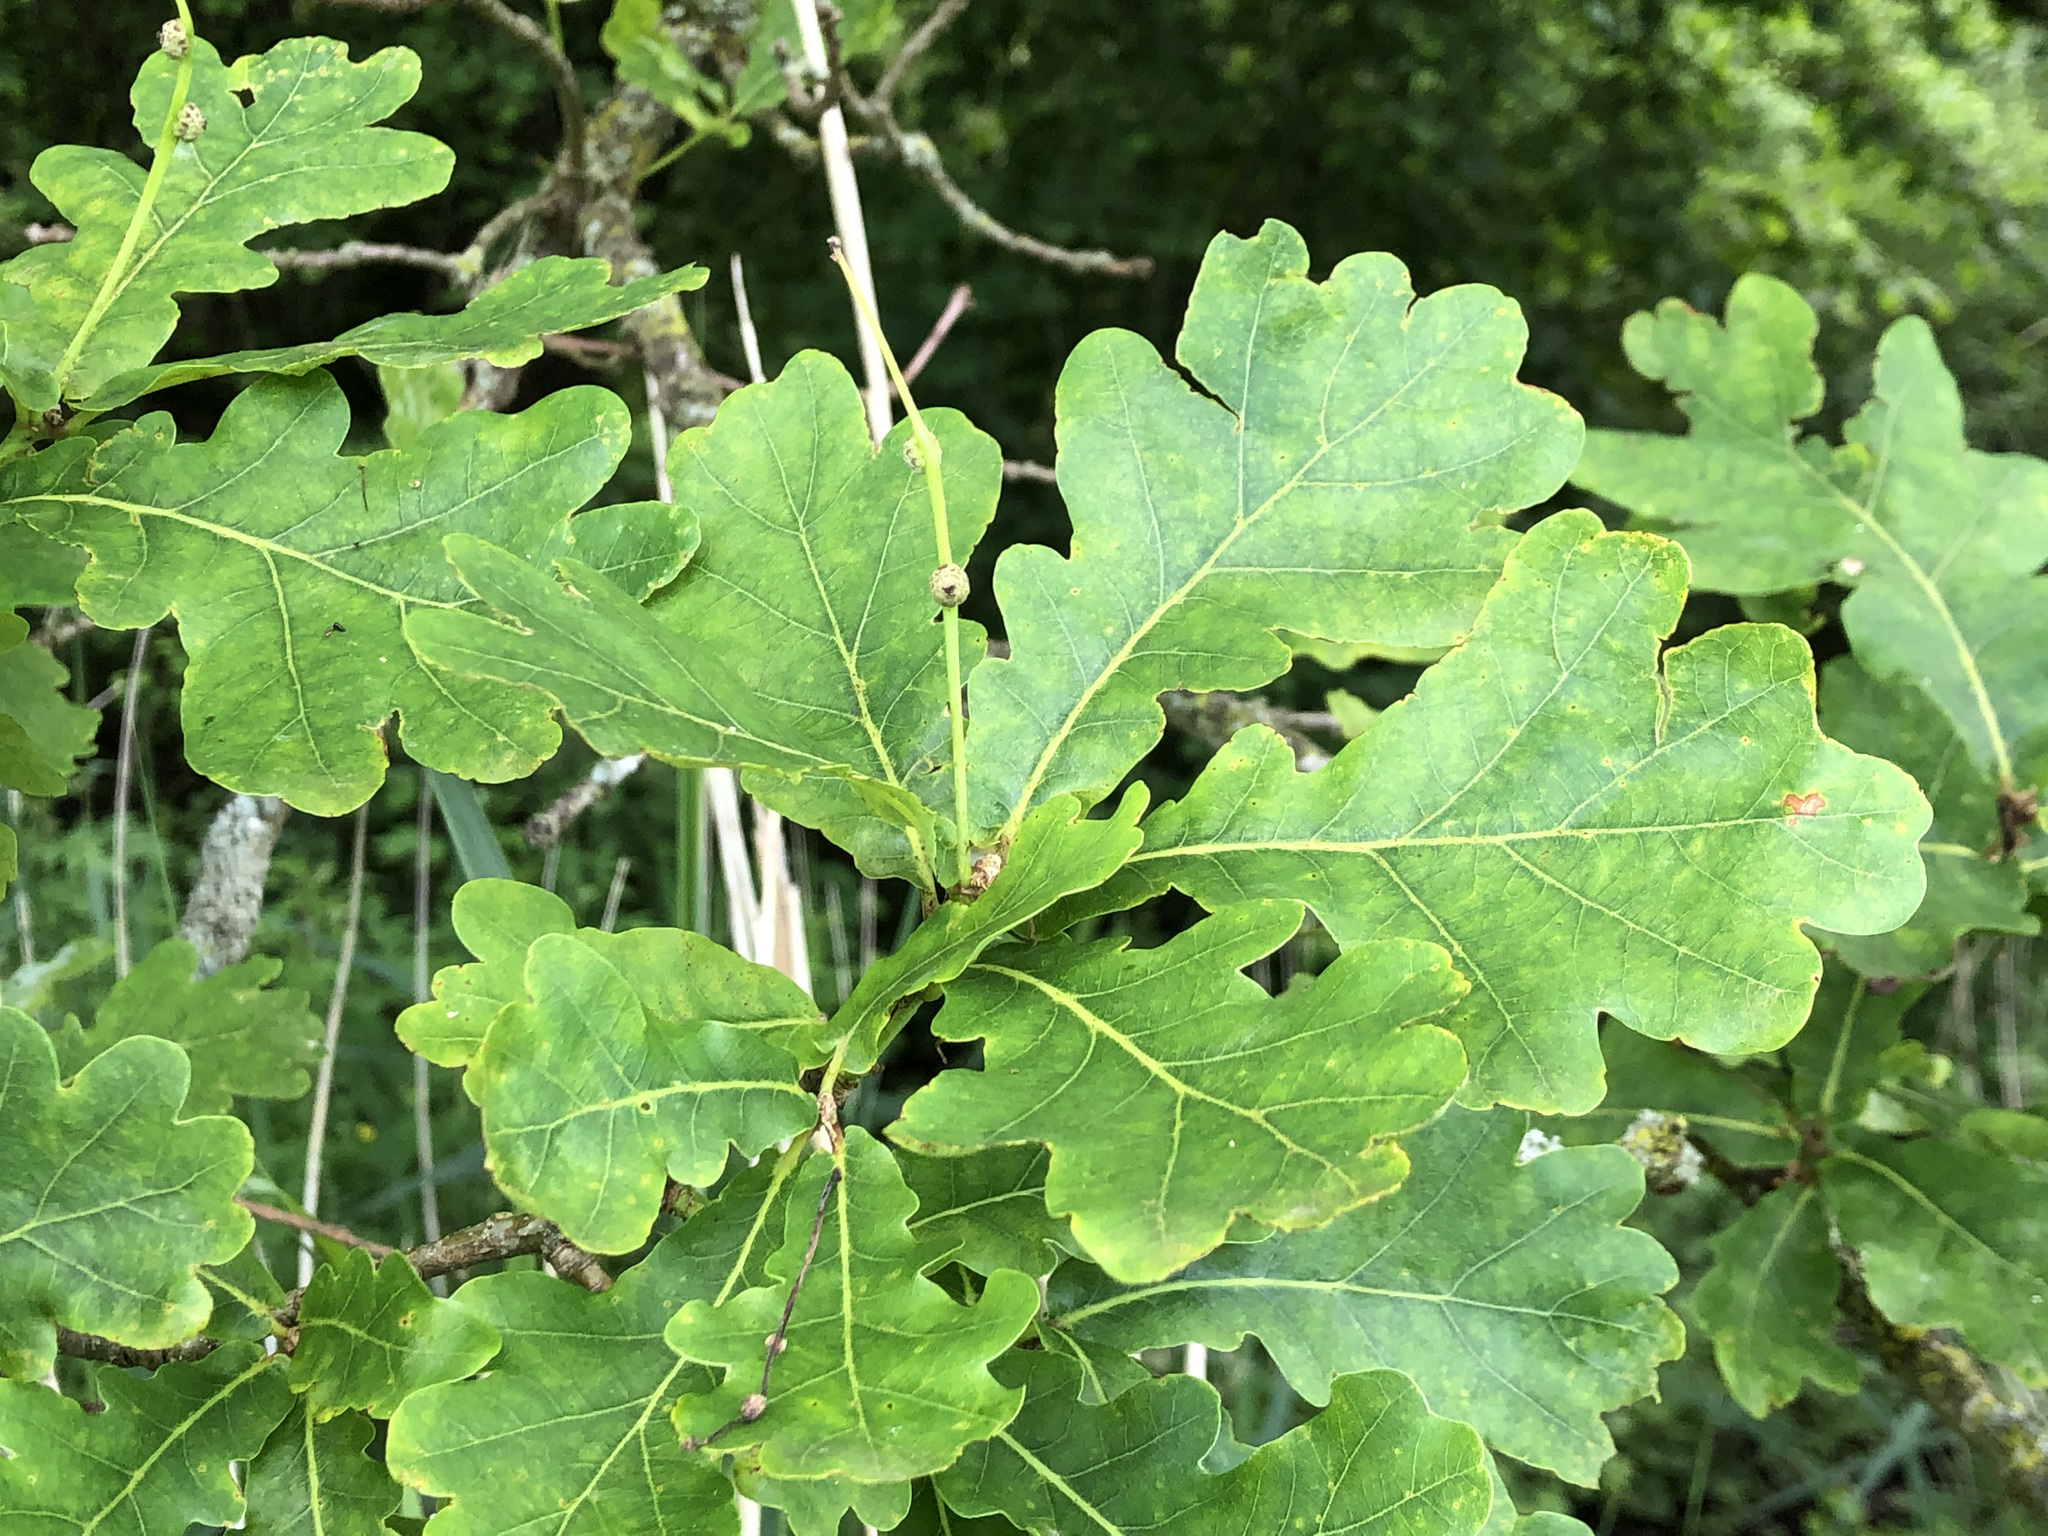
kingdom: Plantae
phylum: Tracheophyta
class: Magnoliopsida
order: Fagales
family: Fagaceae
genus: Quercus
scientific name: Quercus robur
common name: Pedunculate oak
